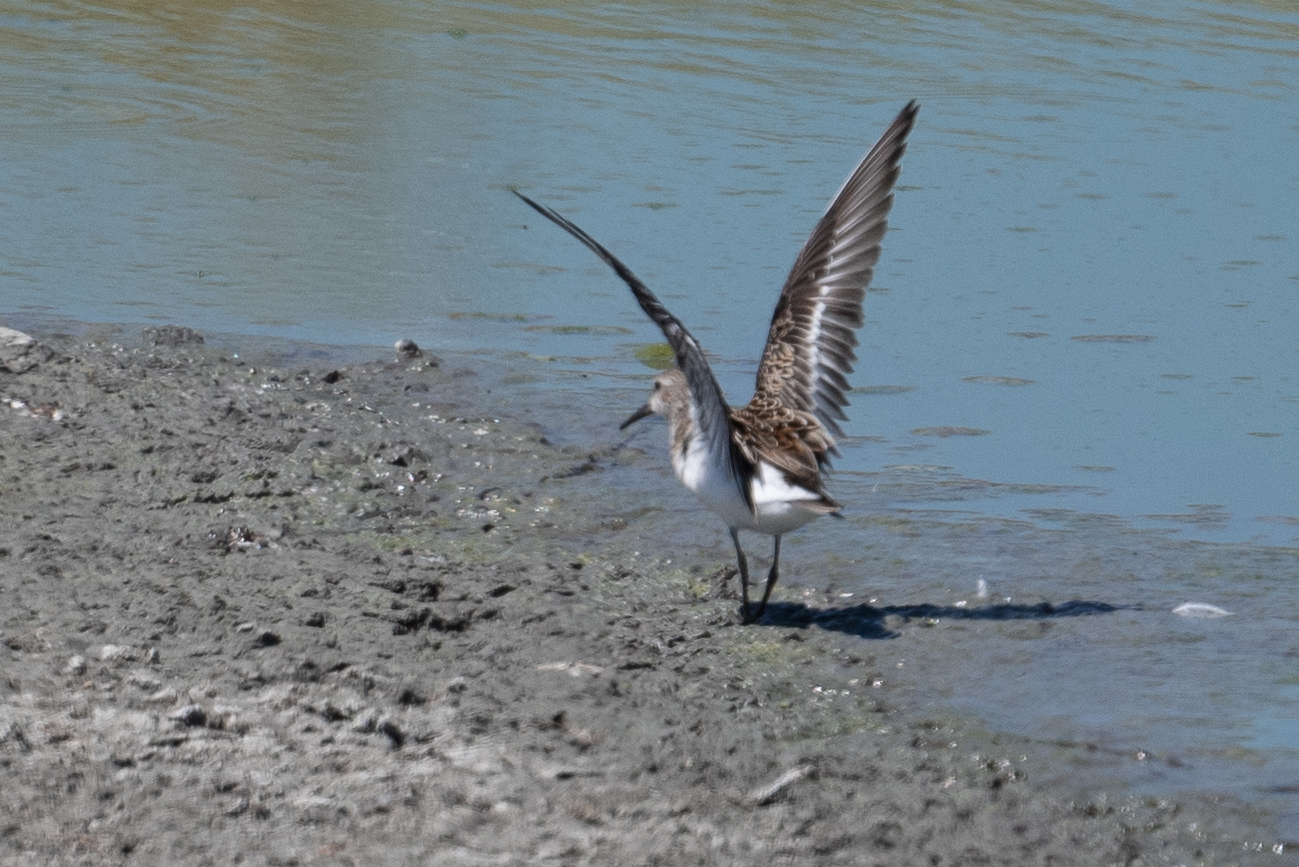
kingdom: Animalia
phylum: Chordata
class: Aves
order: Charadriiformes
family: Scolopacidae
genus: Calidris
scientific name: Calidris mauri
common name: Western sandpiper
